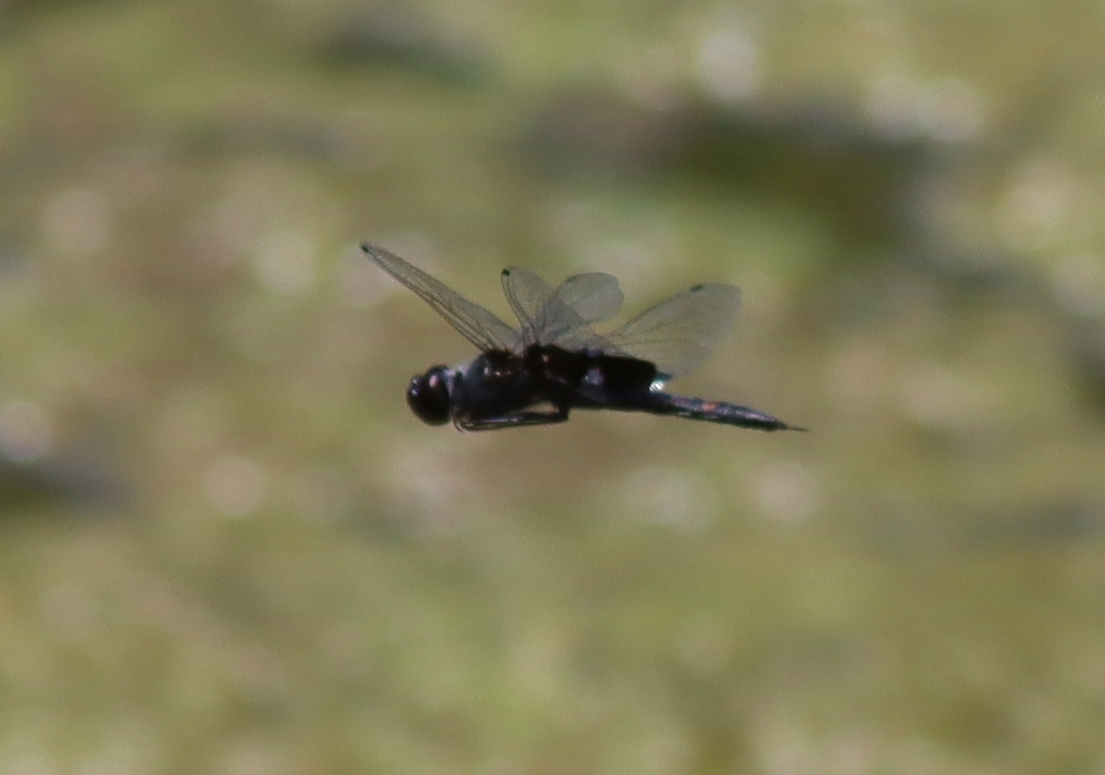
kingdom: Animalia
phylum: Arthropoda
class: Insecta
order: Odonata
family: Libellulidae
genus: Tramea
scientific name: Tramea lacerata
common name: Black saddlebags
